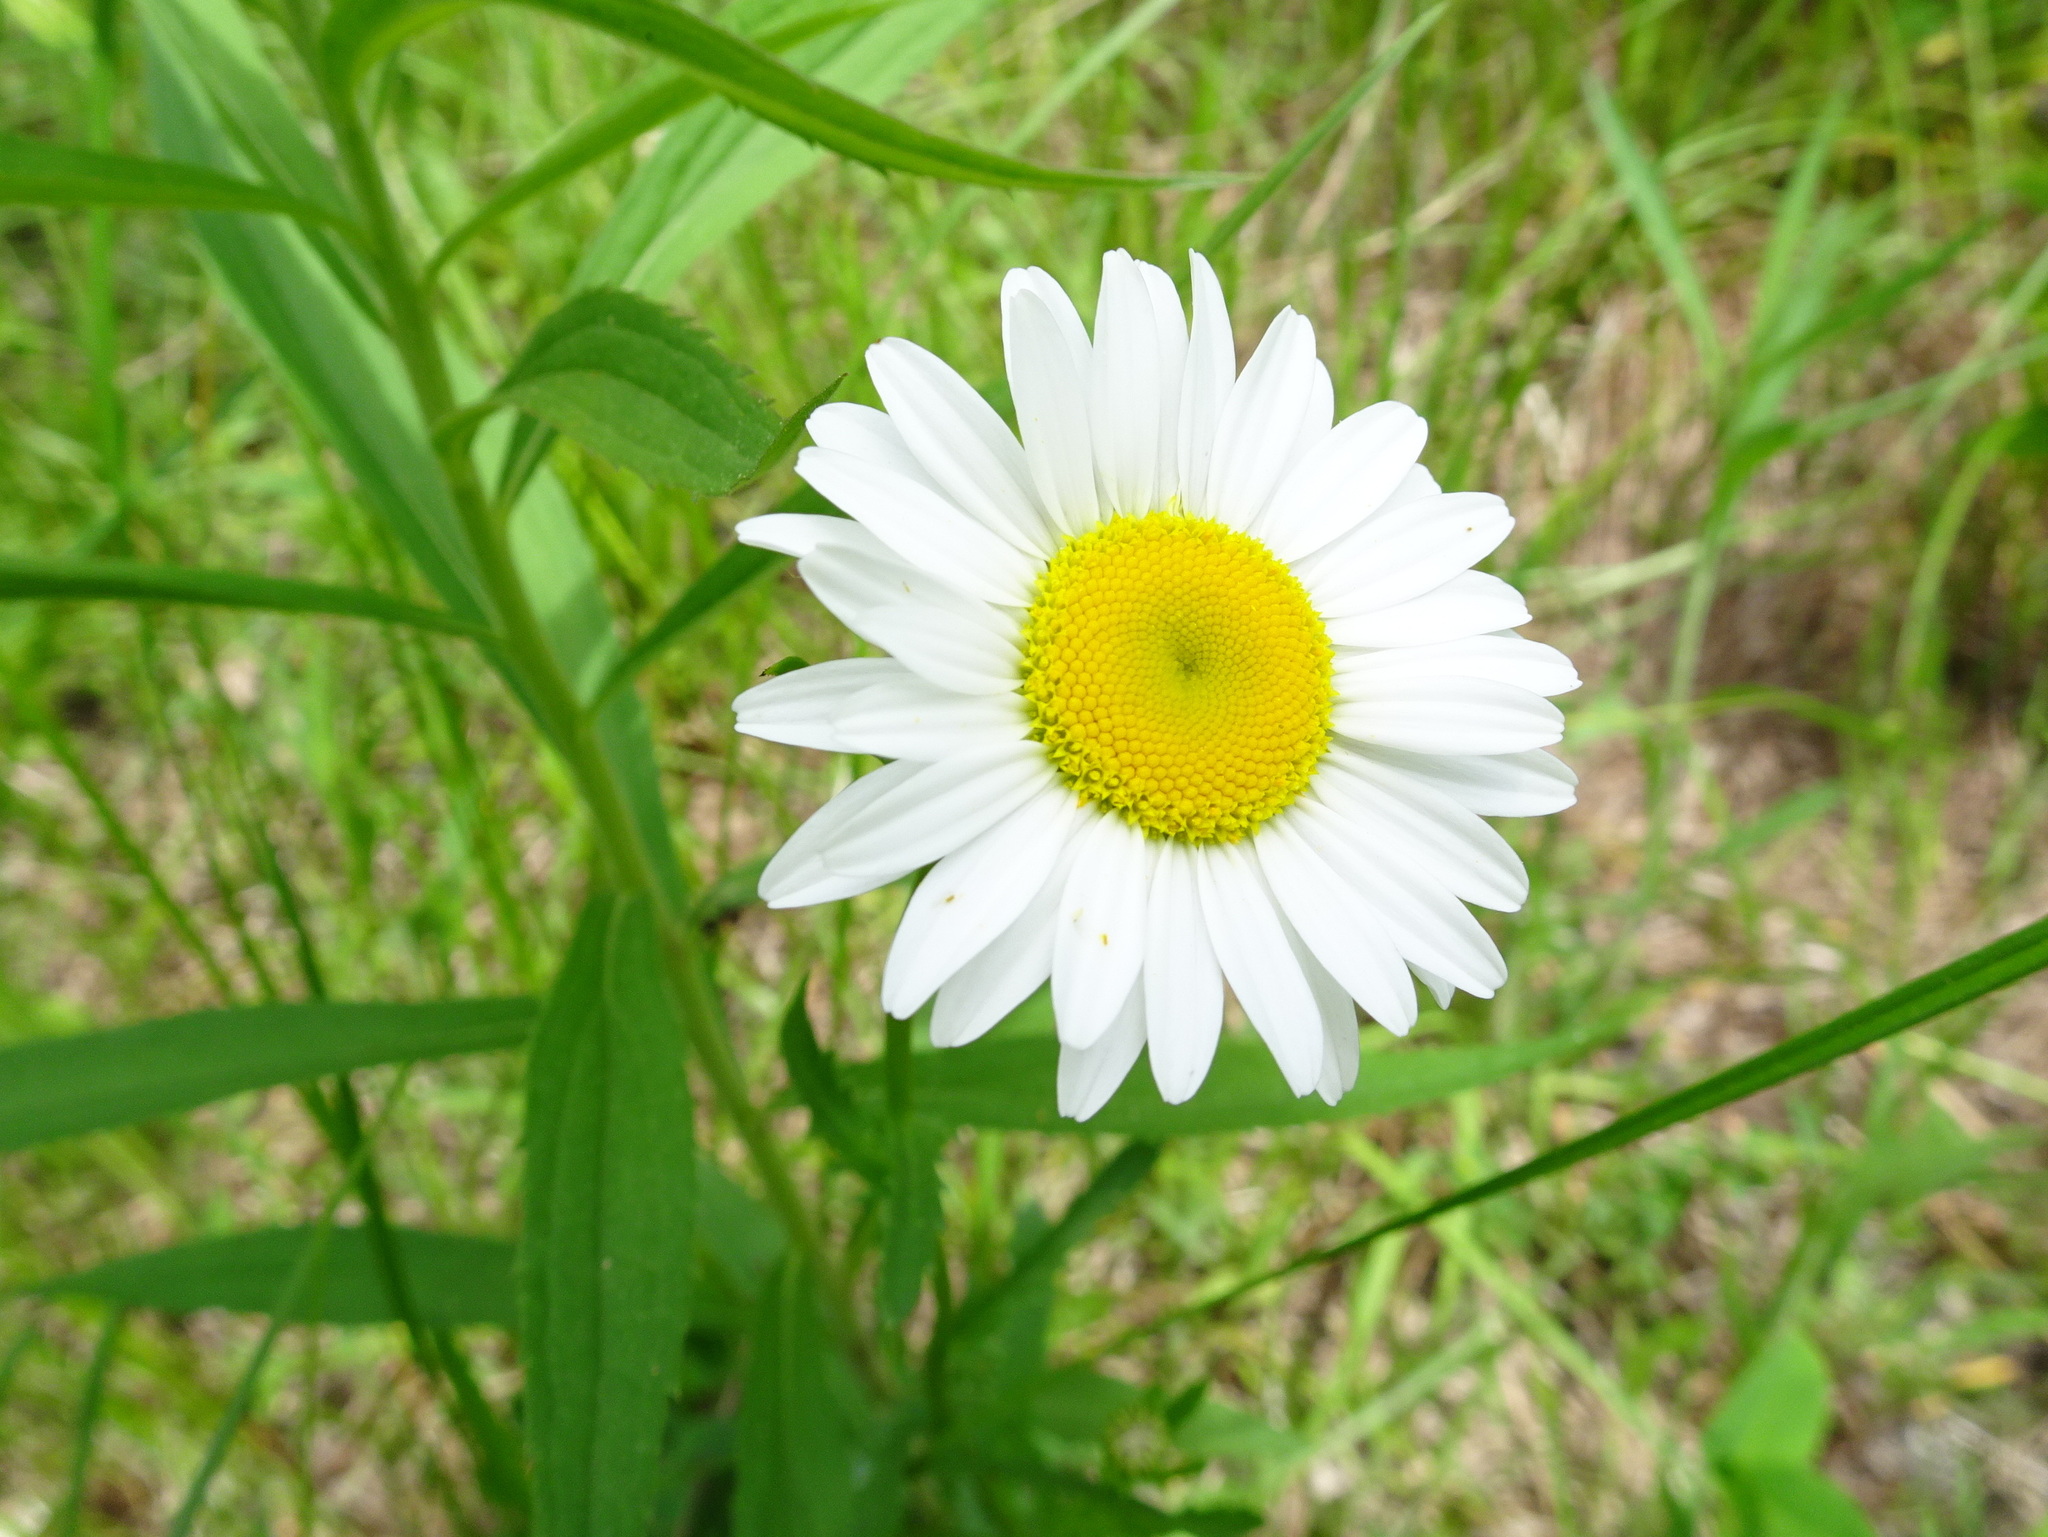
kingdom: Plantae
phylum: Tracheophyta
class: Magnoliopsida
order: Asterales
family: Asteraceae
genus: Leucanthemum
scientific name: Leucanthemum vulgare
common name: Oxeye daisy
